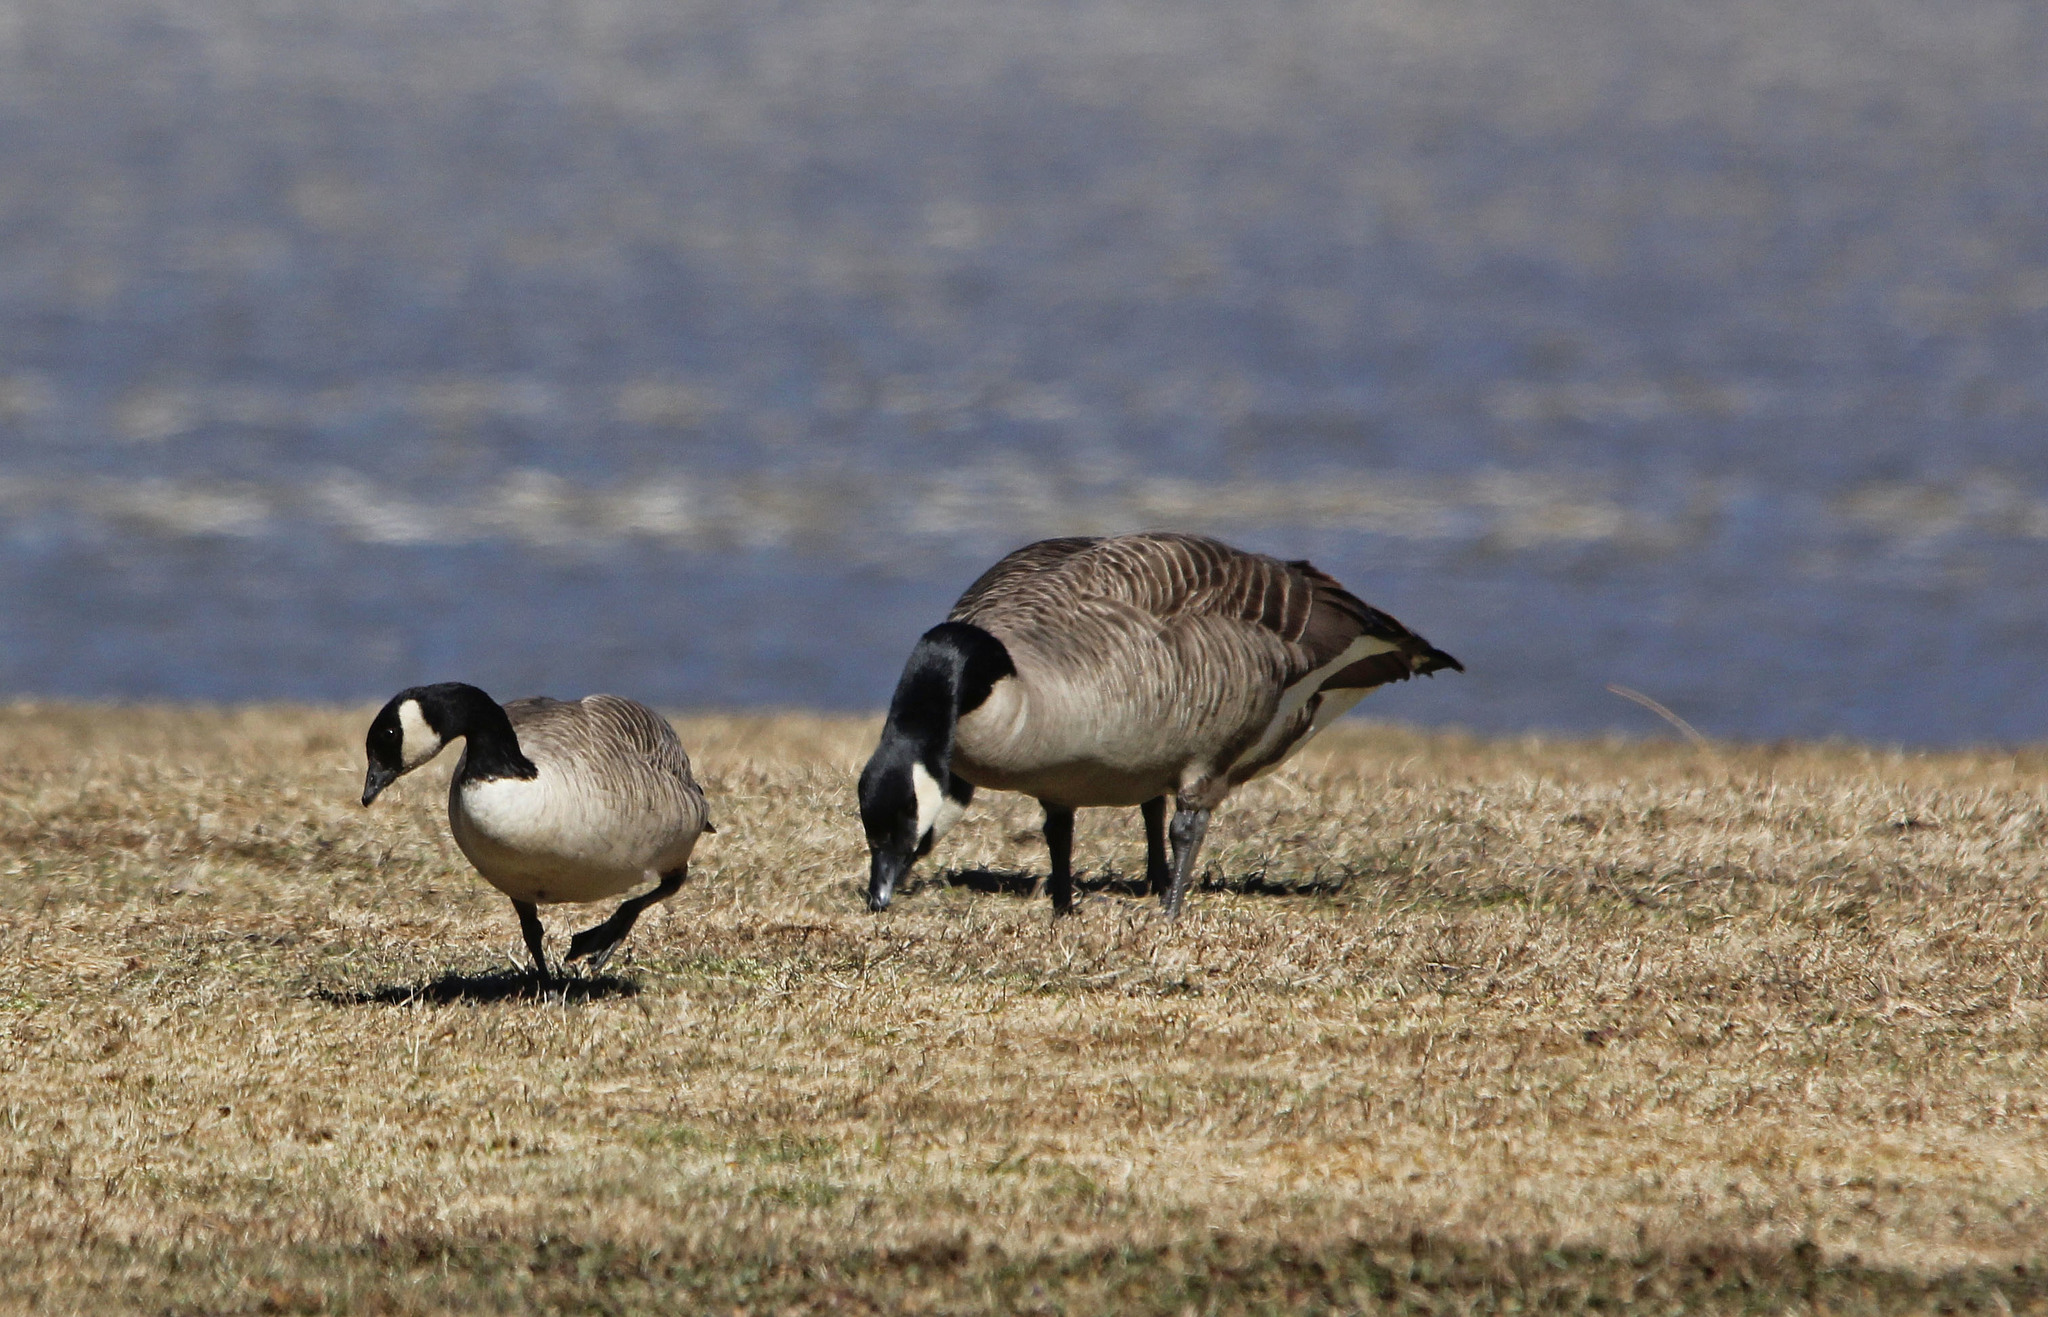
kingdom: Animalia
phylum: Chordata
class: Aves
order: Anseriformes
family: Anatidae
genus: Branta
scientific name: Branta hutchinsii
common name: Cackling goose
